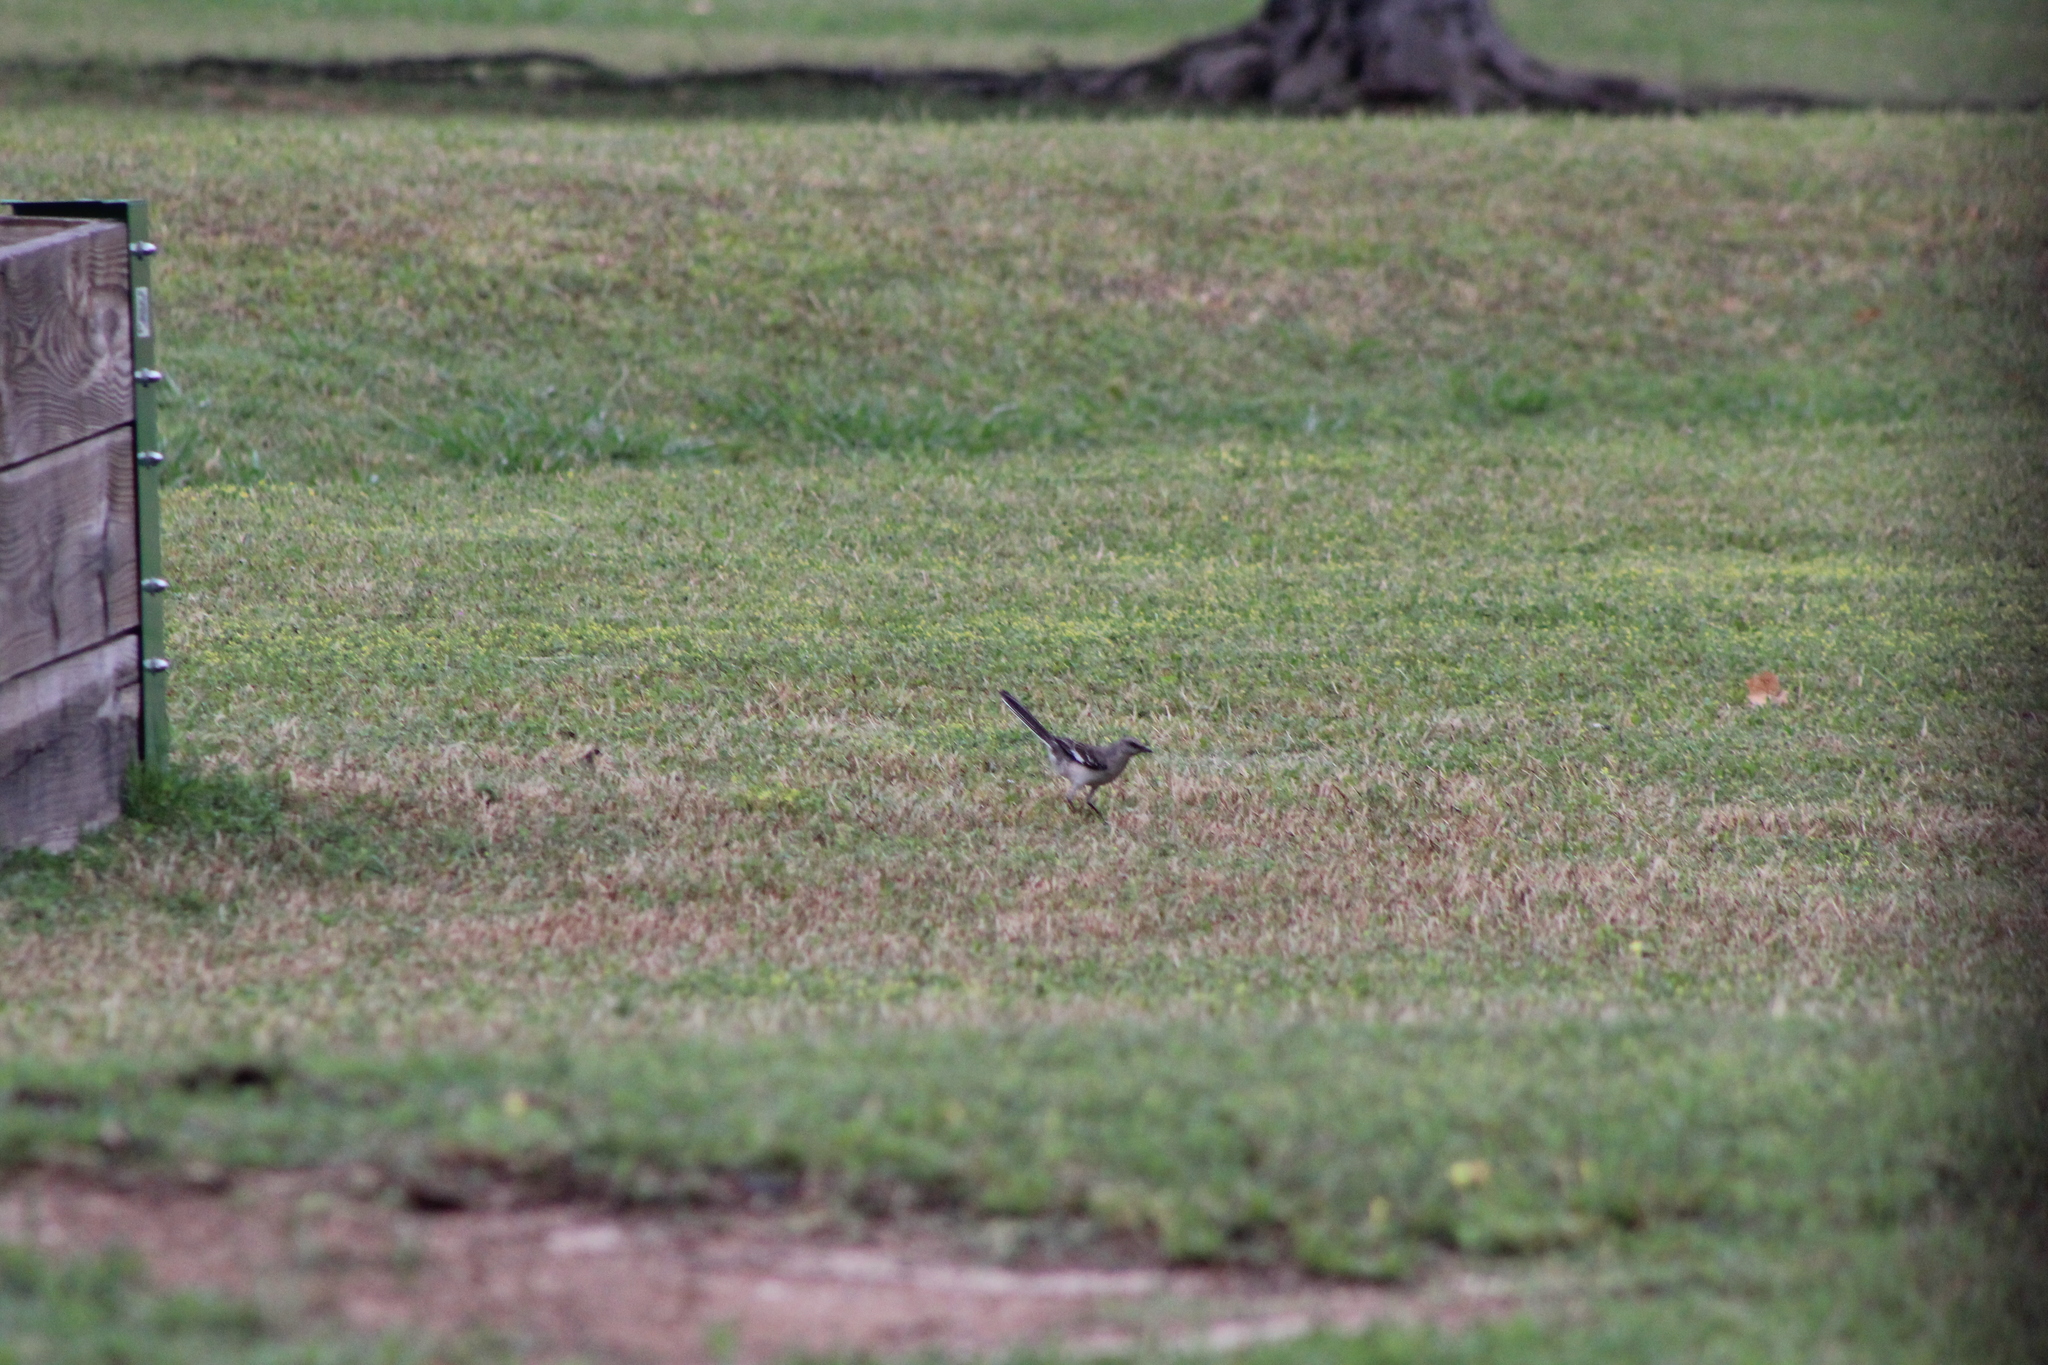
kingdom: Animalia
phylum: Chordata
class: Aves
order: Passeriformes
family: Mimidae
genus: Mimus
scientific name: Mimus polyglottos
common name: Northern mockingbird
